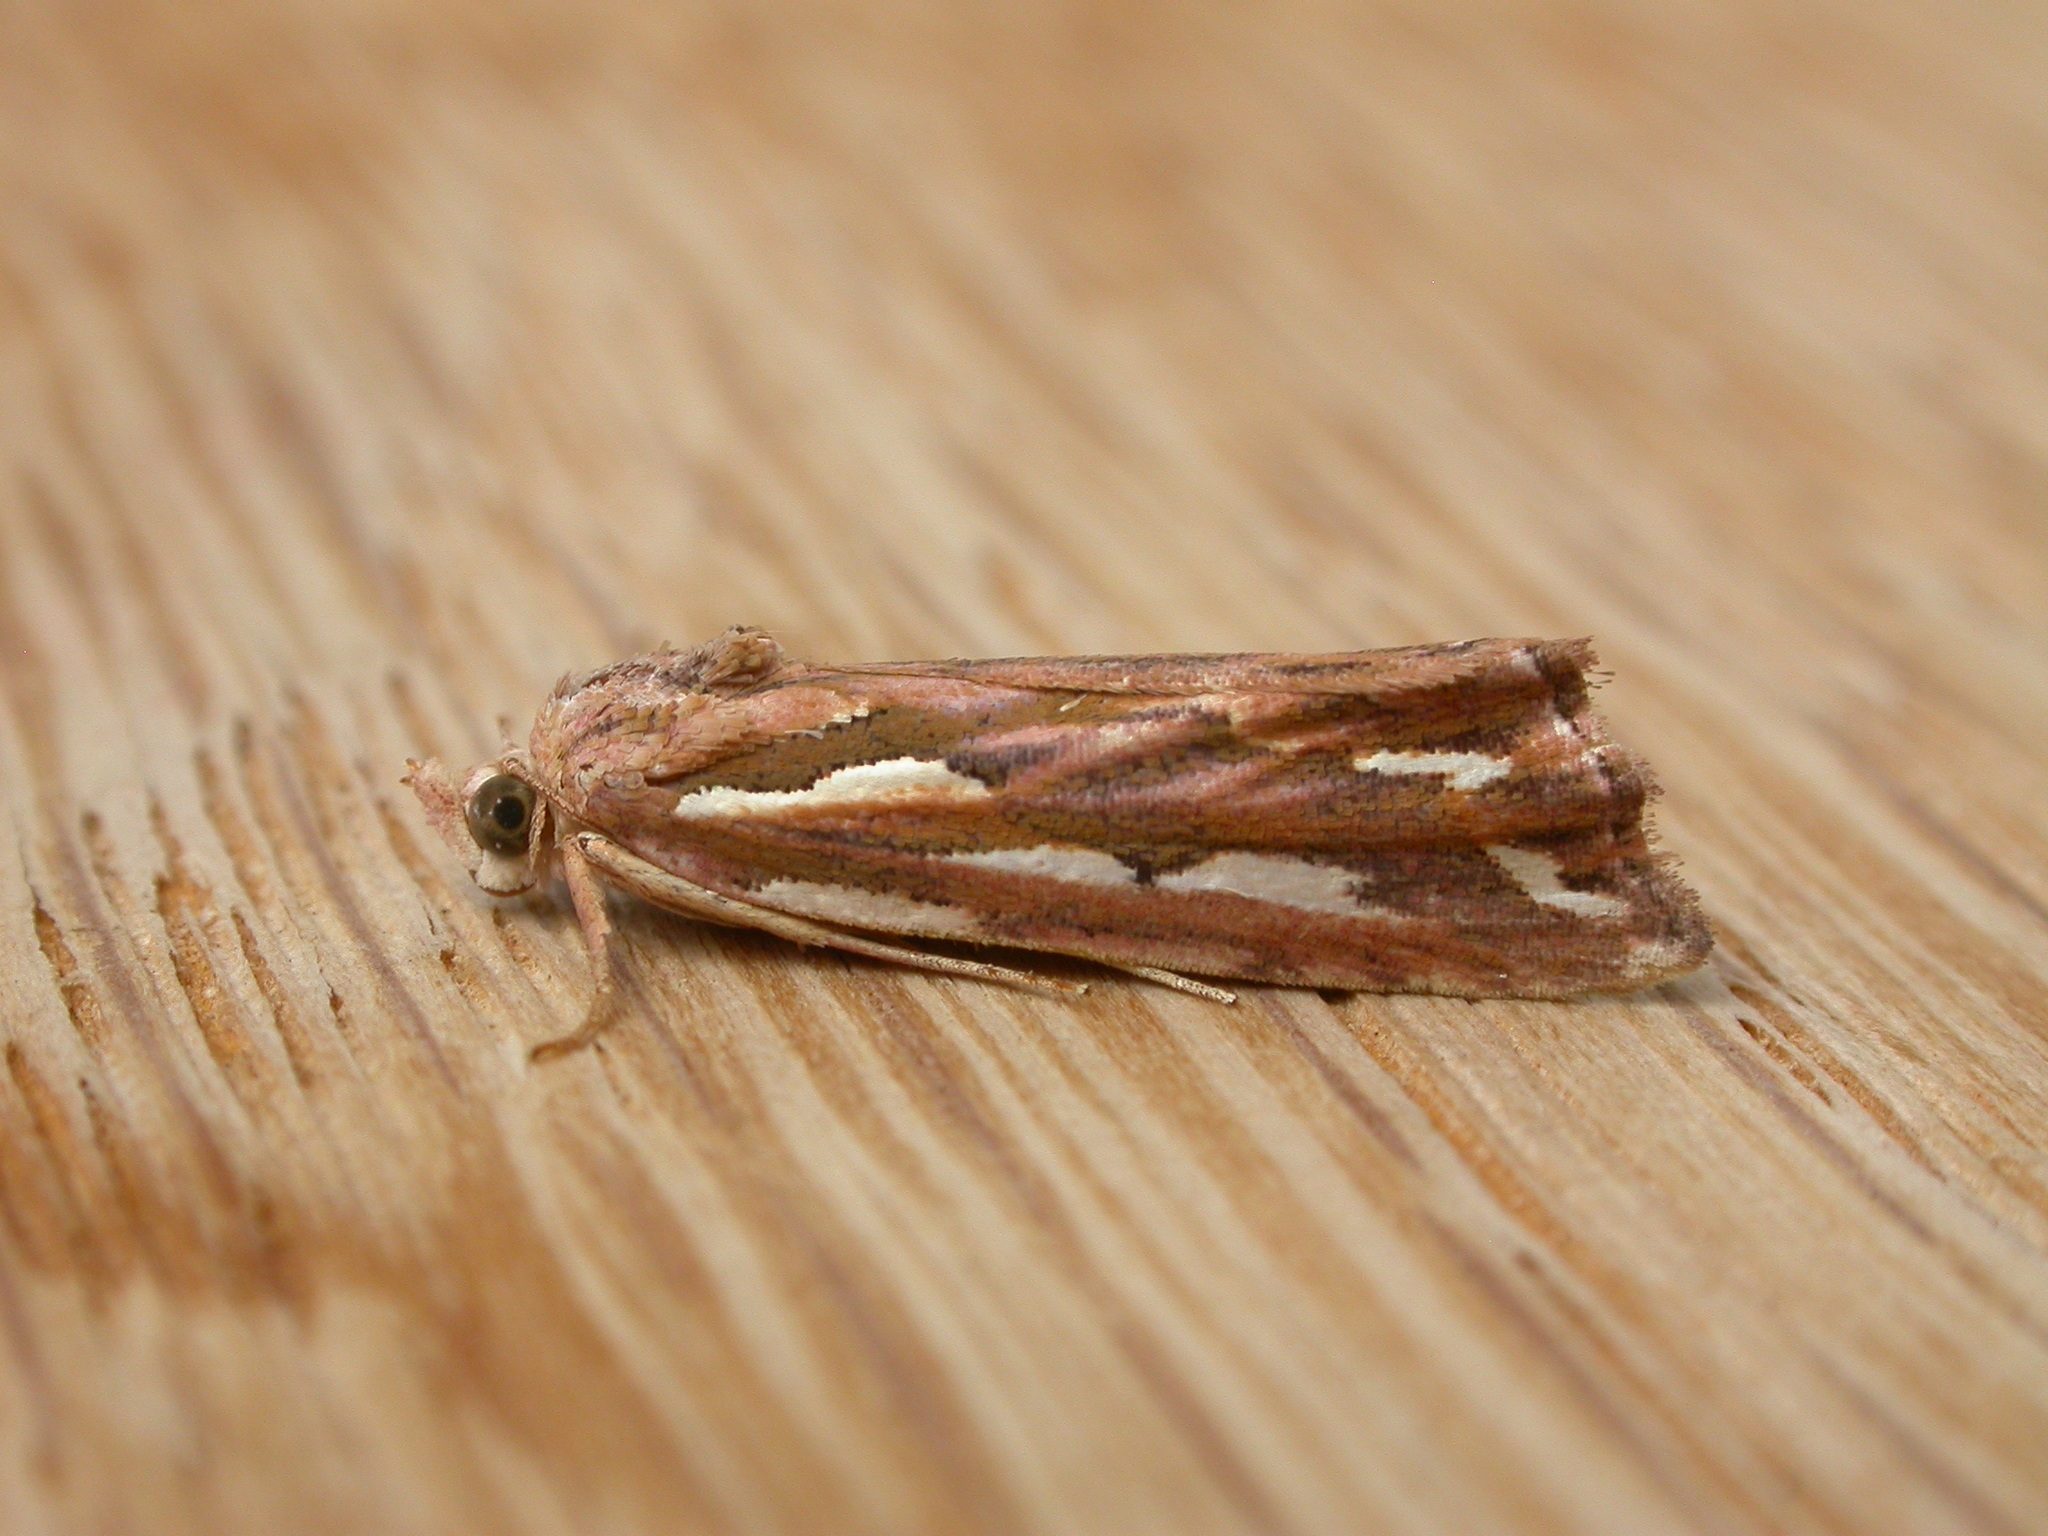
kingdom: Animalia
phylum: Arthropoda
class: Insecta
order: Lepidoptera
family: Erebidae
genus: Meyrickella
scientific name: Meyrickella torquesauria
